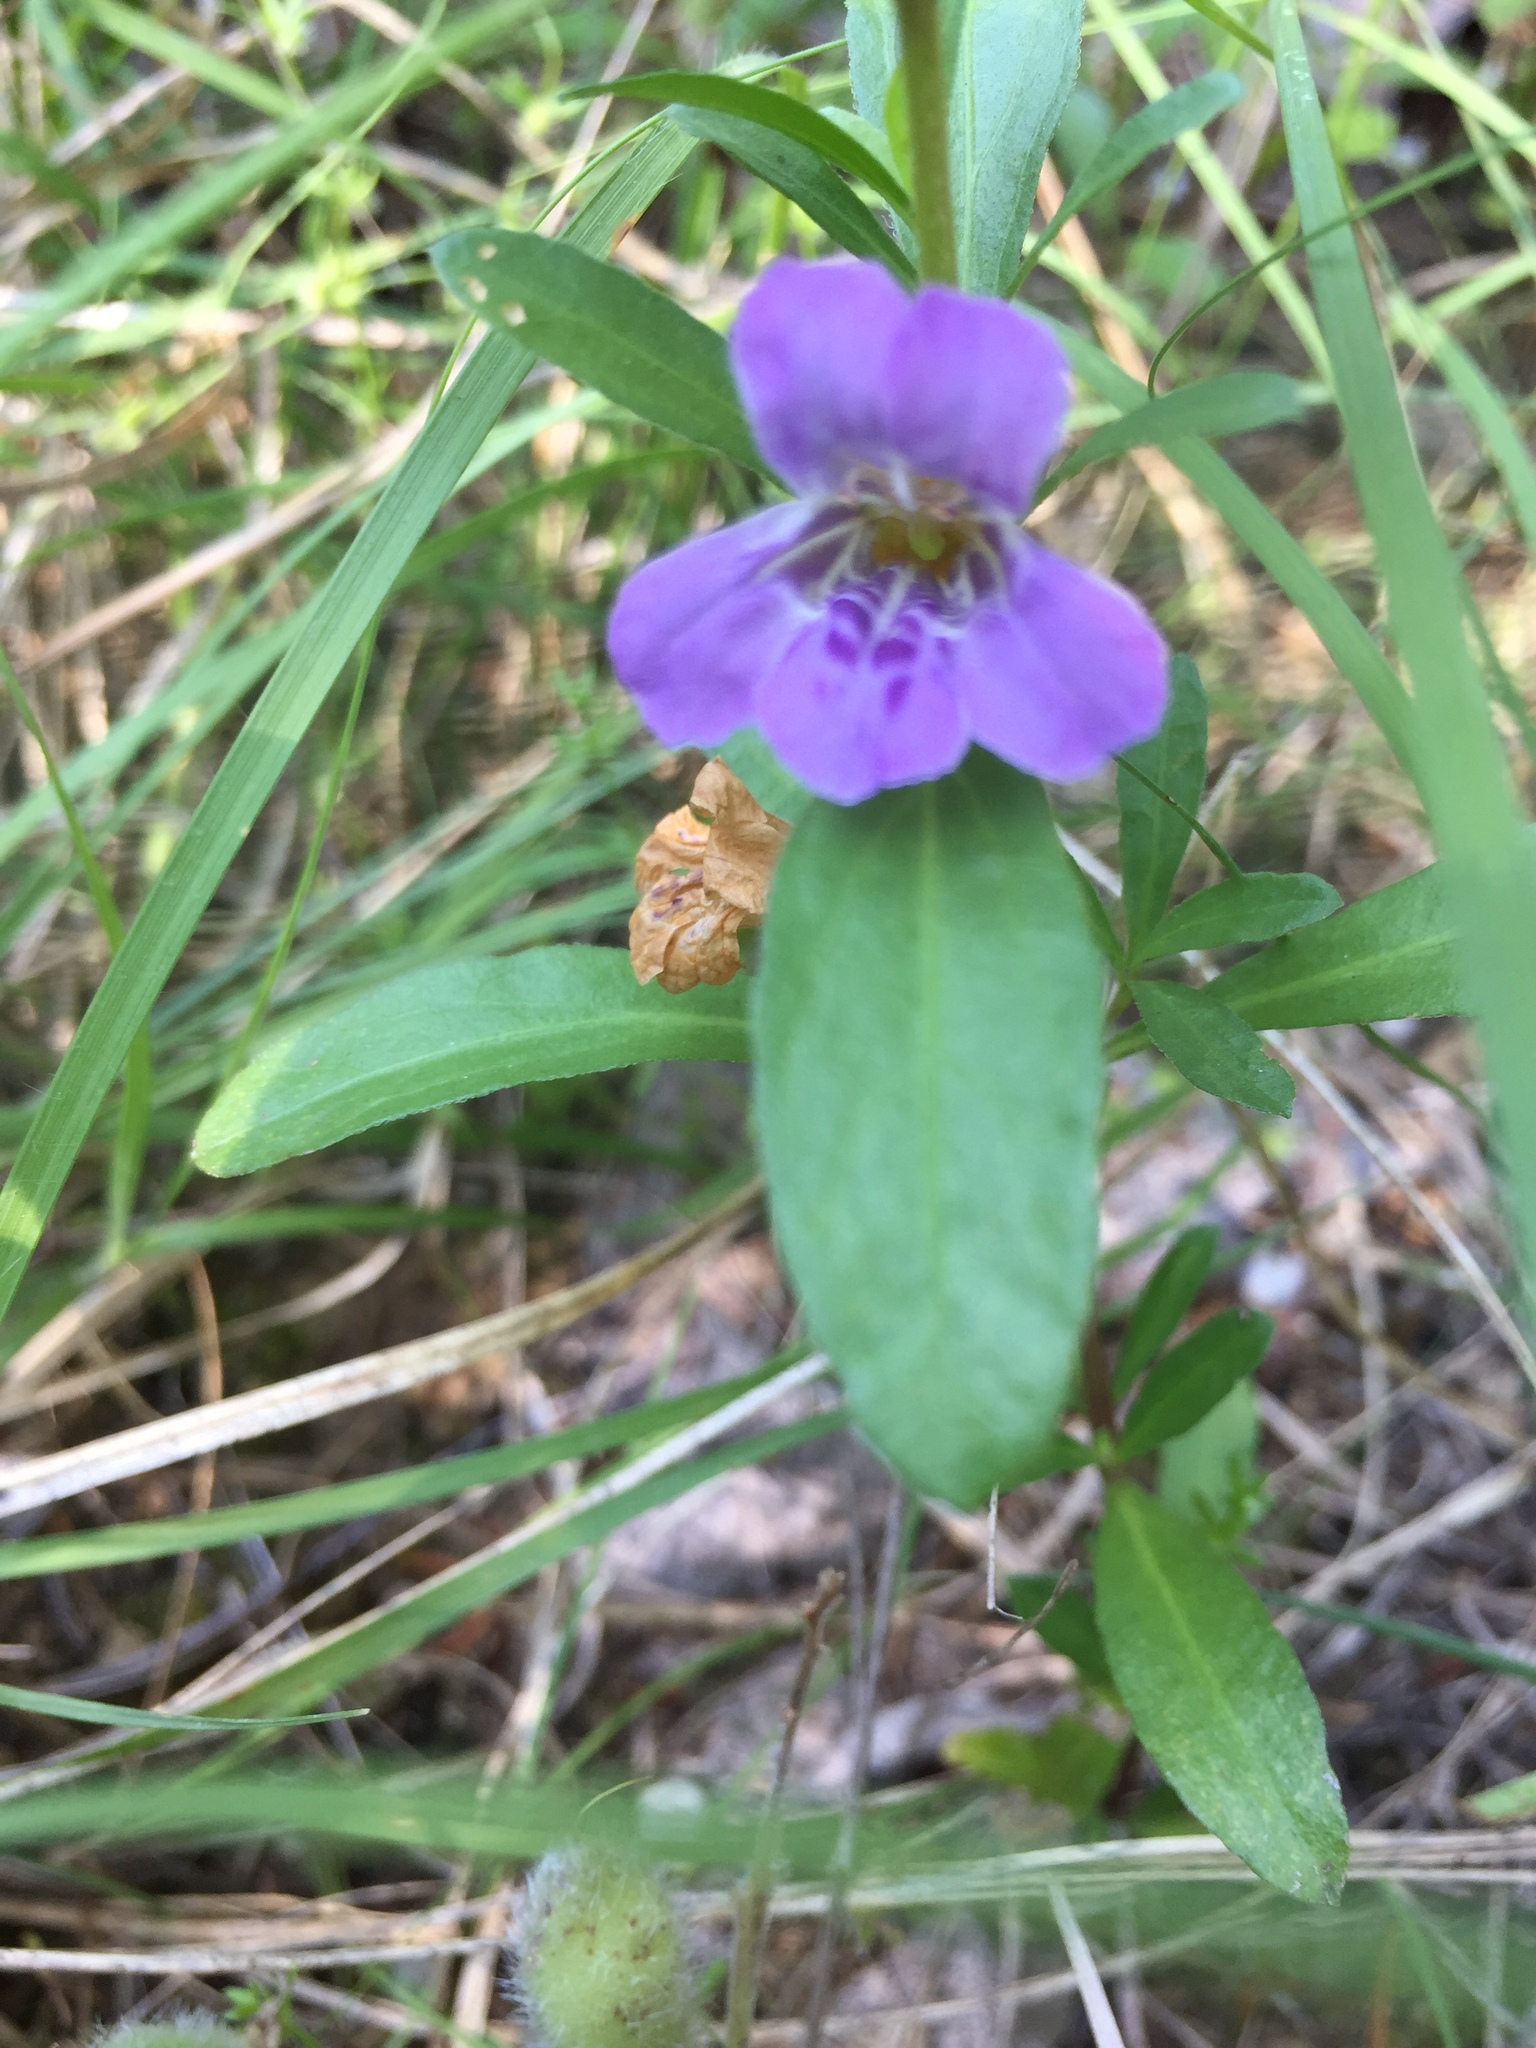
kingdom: Plantae
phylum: Tracheophyta
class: Magnoliopsida
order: Lamiales
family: Acanthaceae
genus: Dyschoriste
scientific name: Dyschoriste linearis
